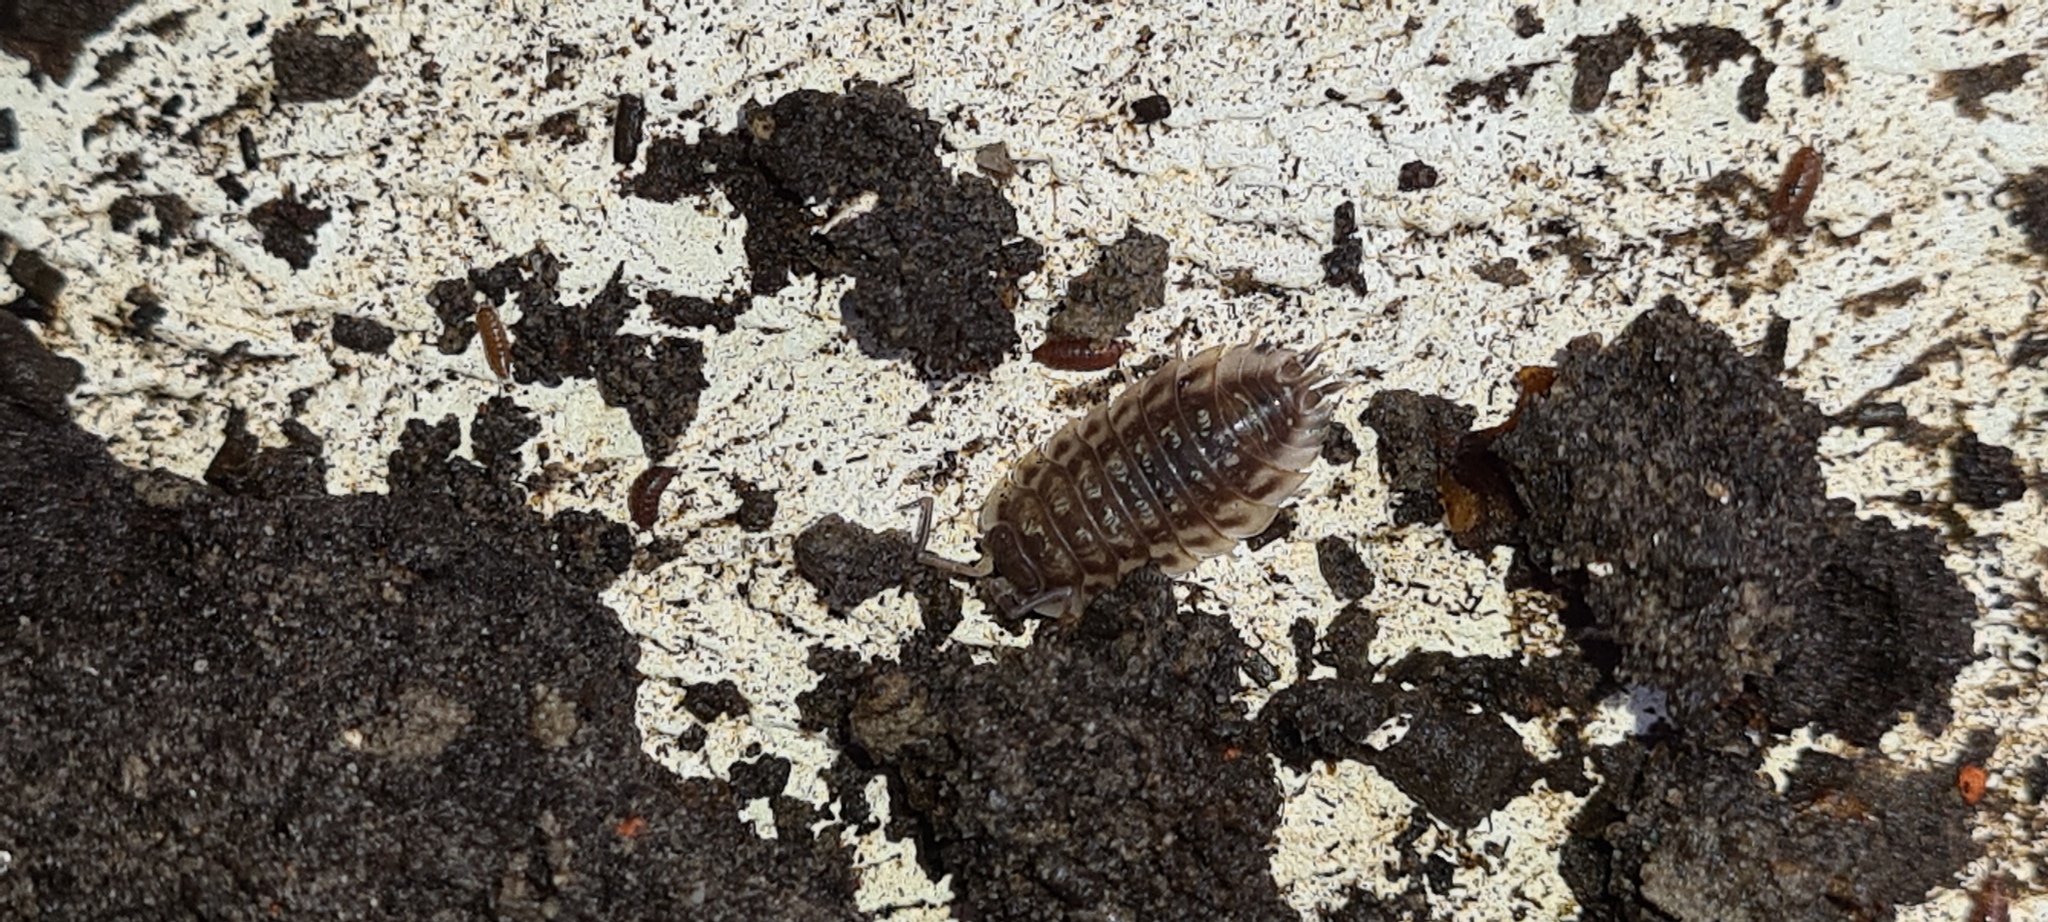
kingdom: Animalia
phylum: Arthropoda
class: Malacostraca
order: Isopoda
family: Oniscidae
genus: Oniscus
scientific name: Oniscus asellus
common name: Common shiny woodlouse
